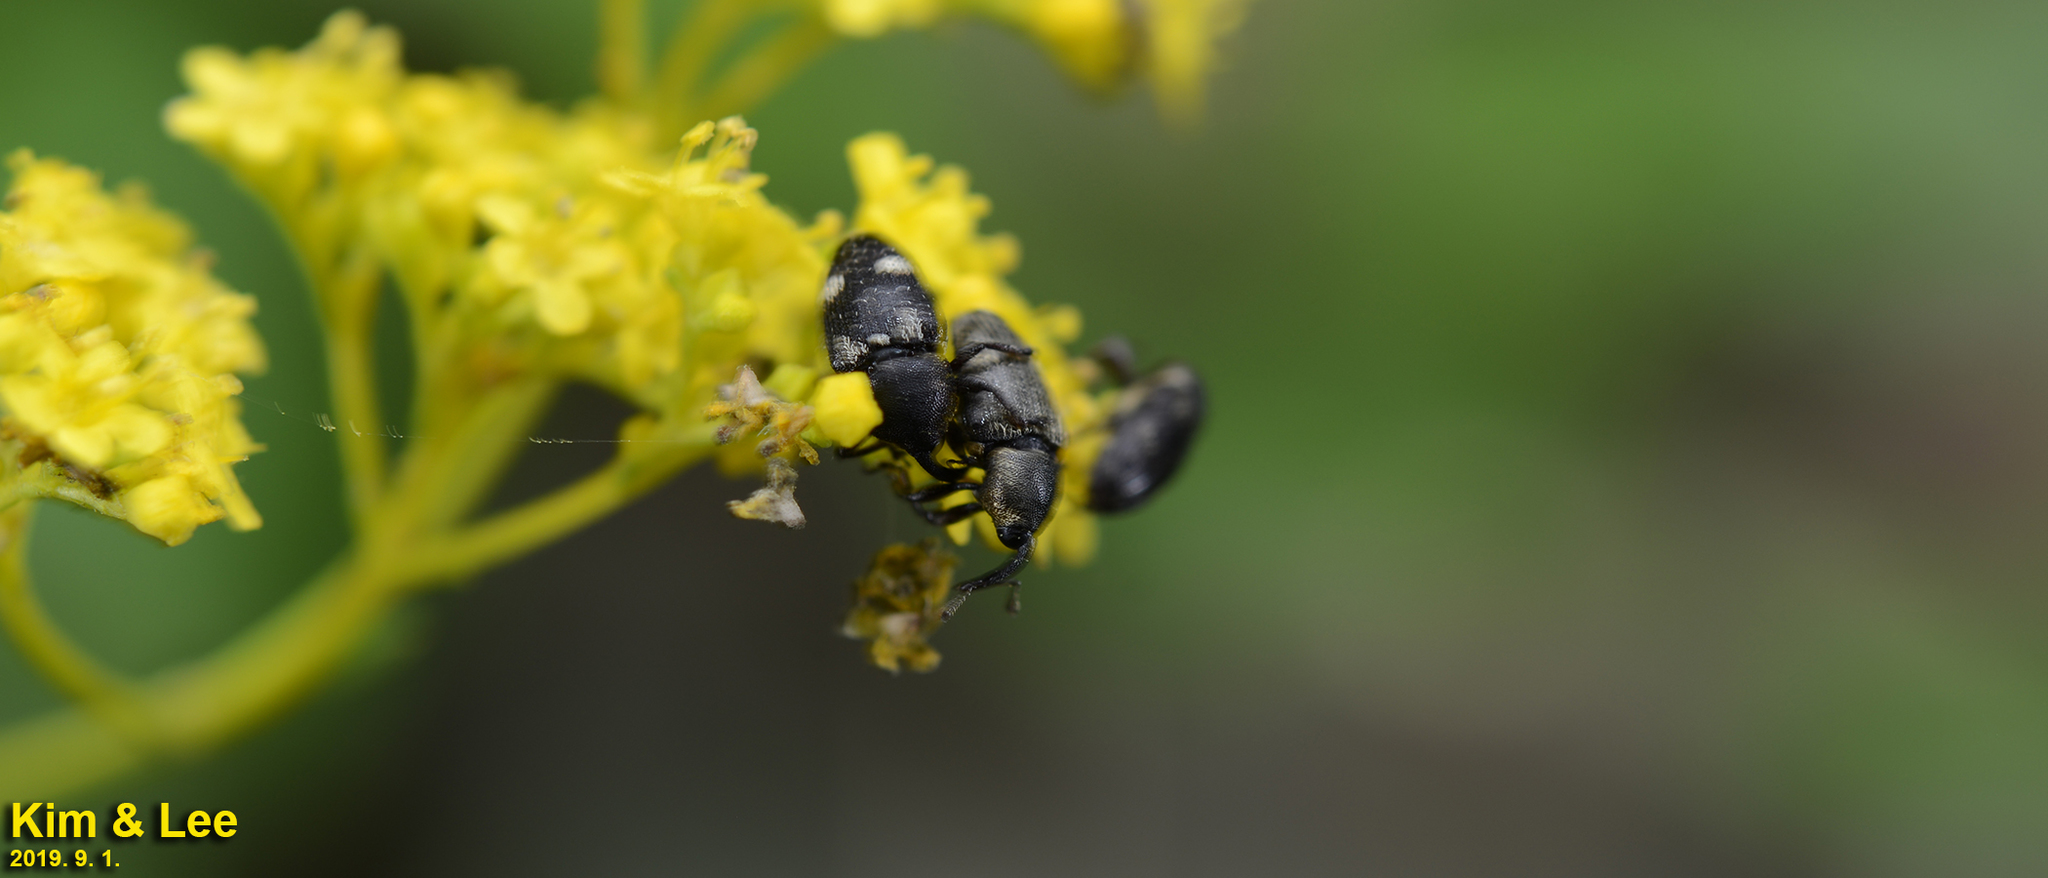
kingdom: Animalia
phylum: Arthropoda
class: Insecta
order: Coleoptera
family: Curculionidae
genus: Anthinobaris
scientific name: Anthinobaris dispilota
